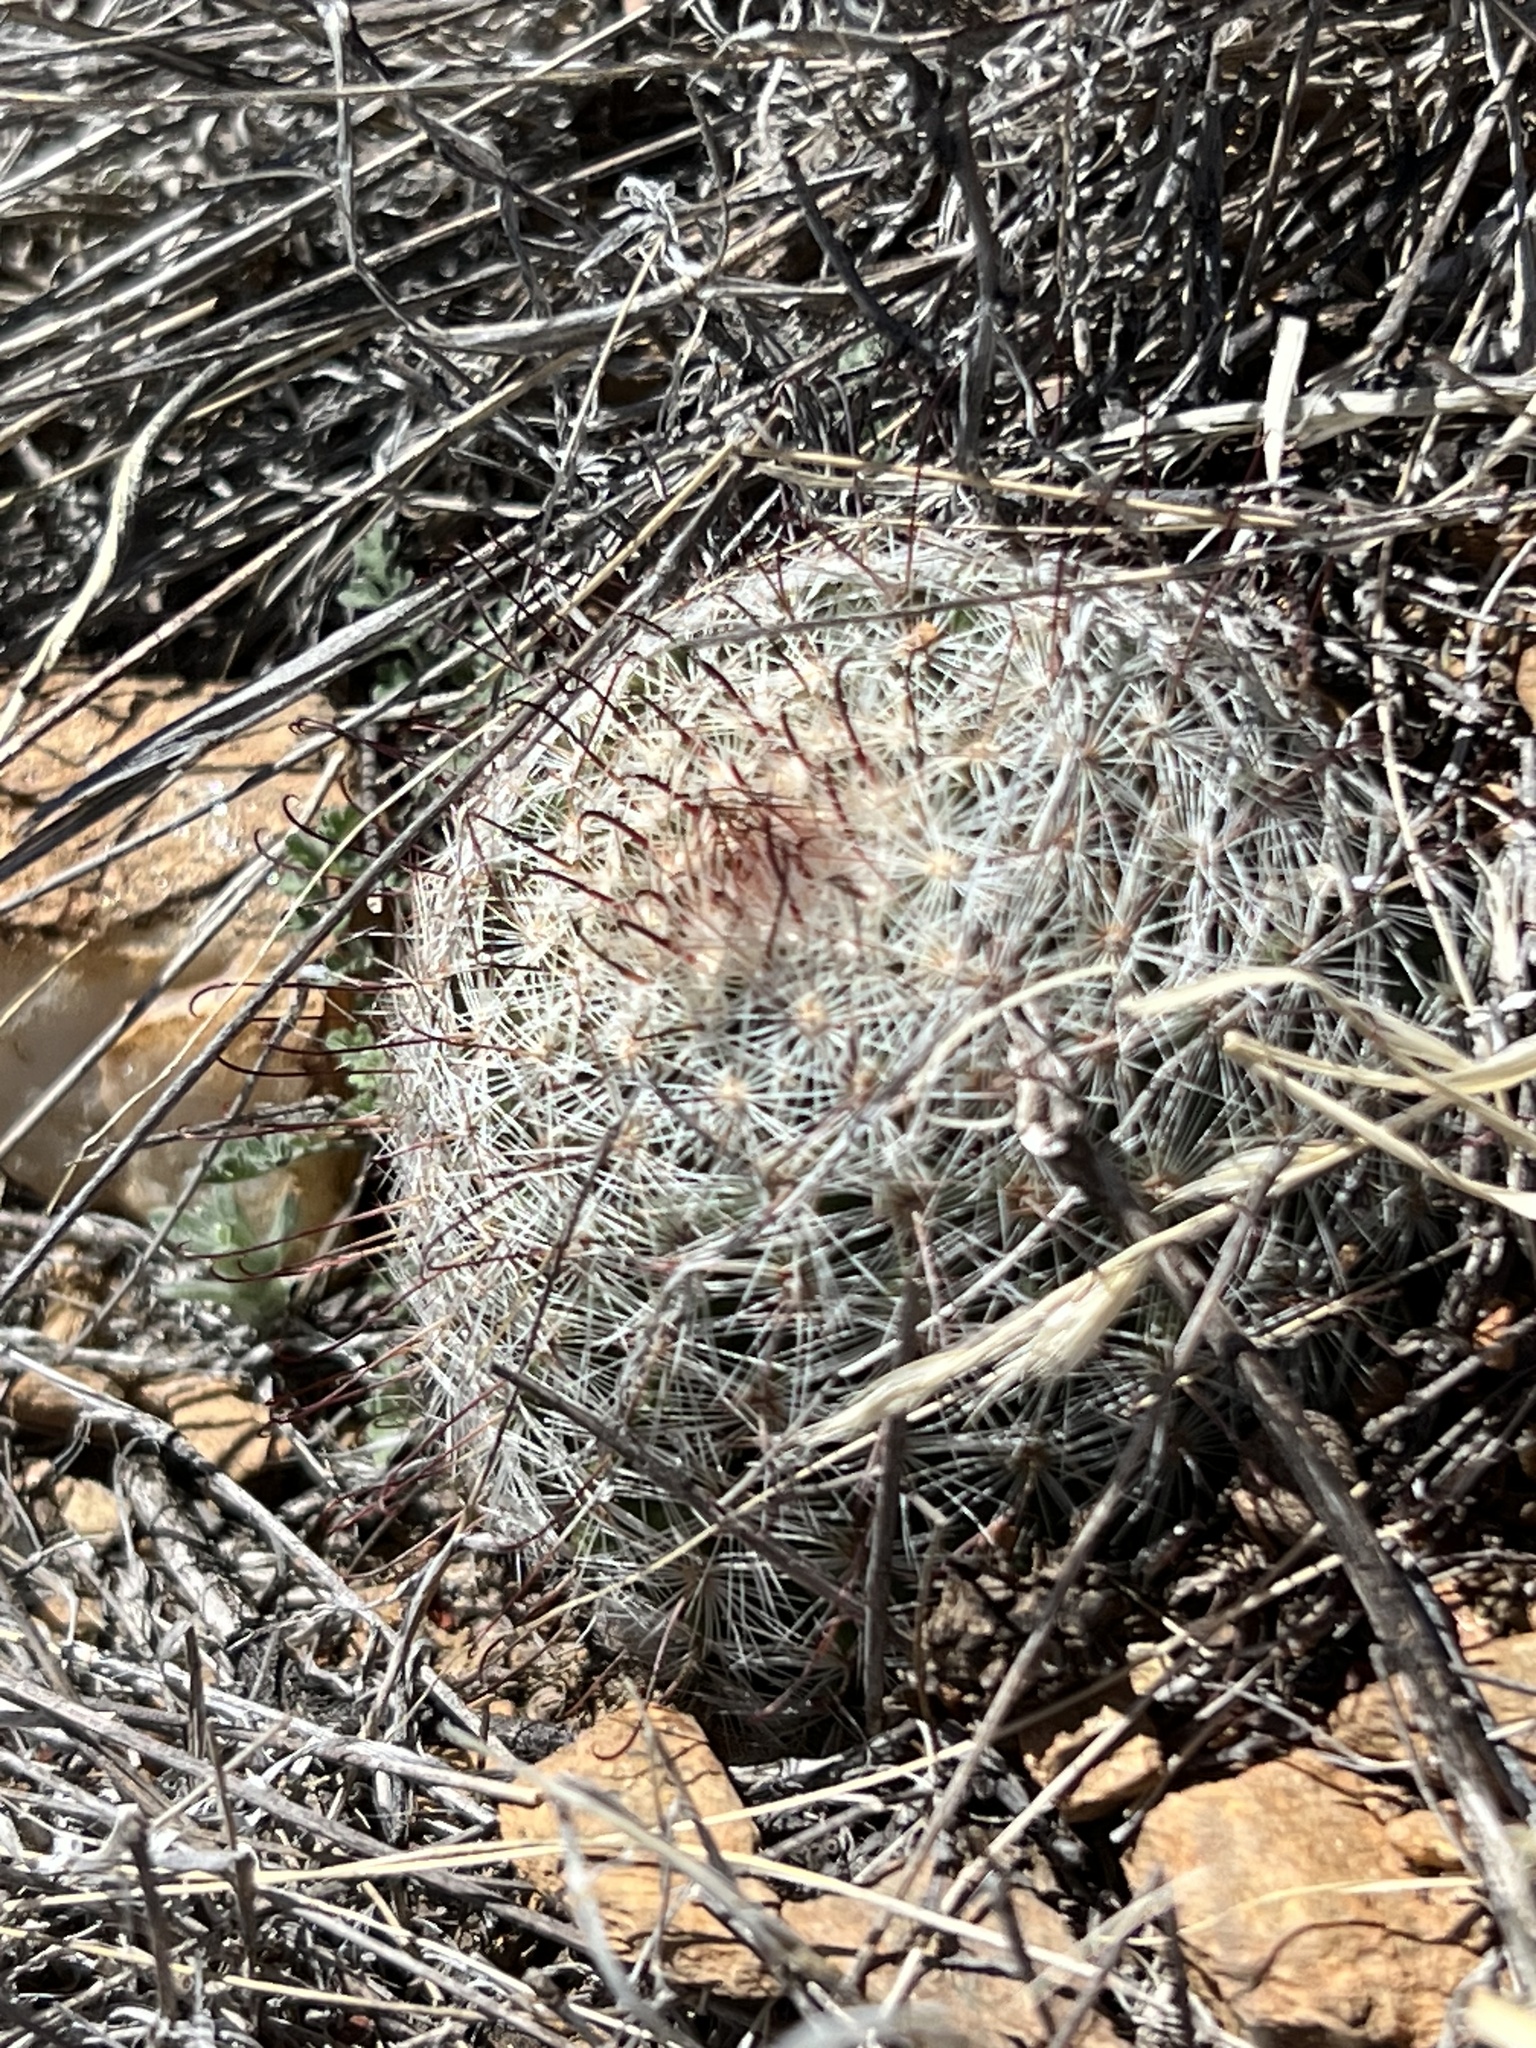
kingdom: Plantae
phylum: Tracheophyta
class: Magnoliopsida
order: Caryophyllales
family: Cactaceae
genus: Cochemiea
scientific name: Cochemiea grahamii
